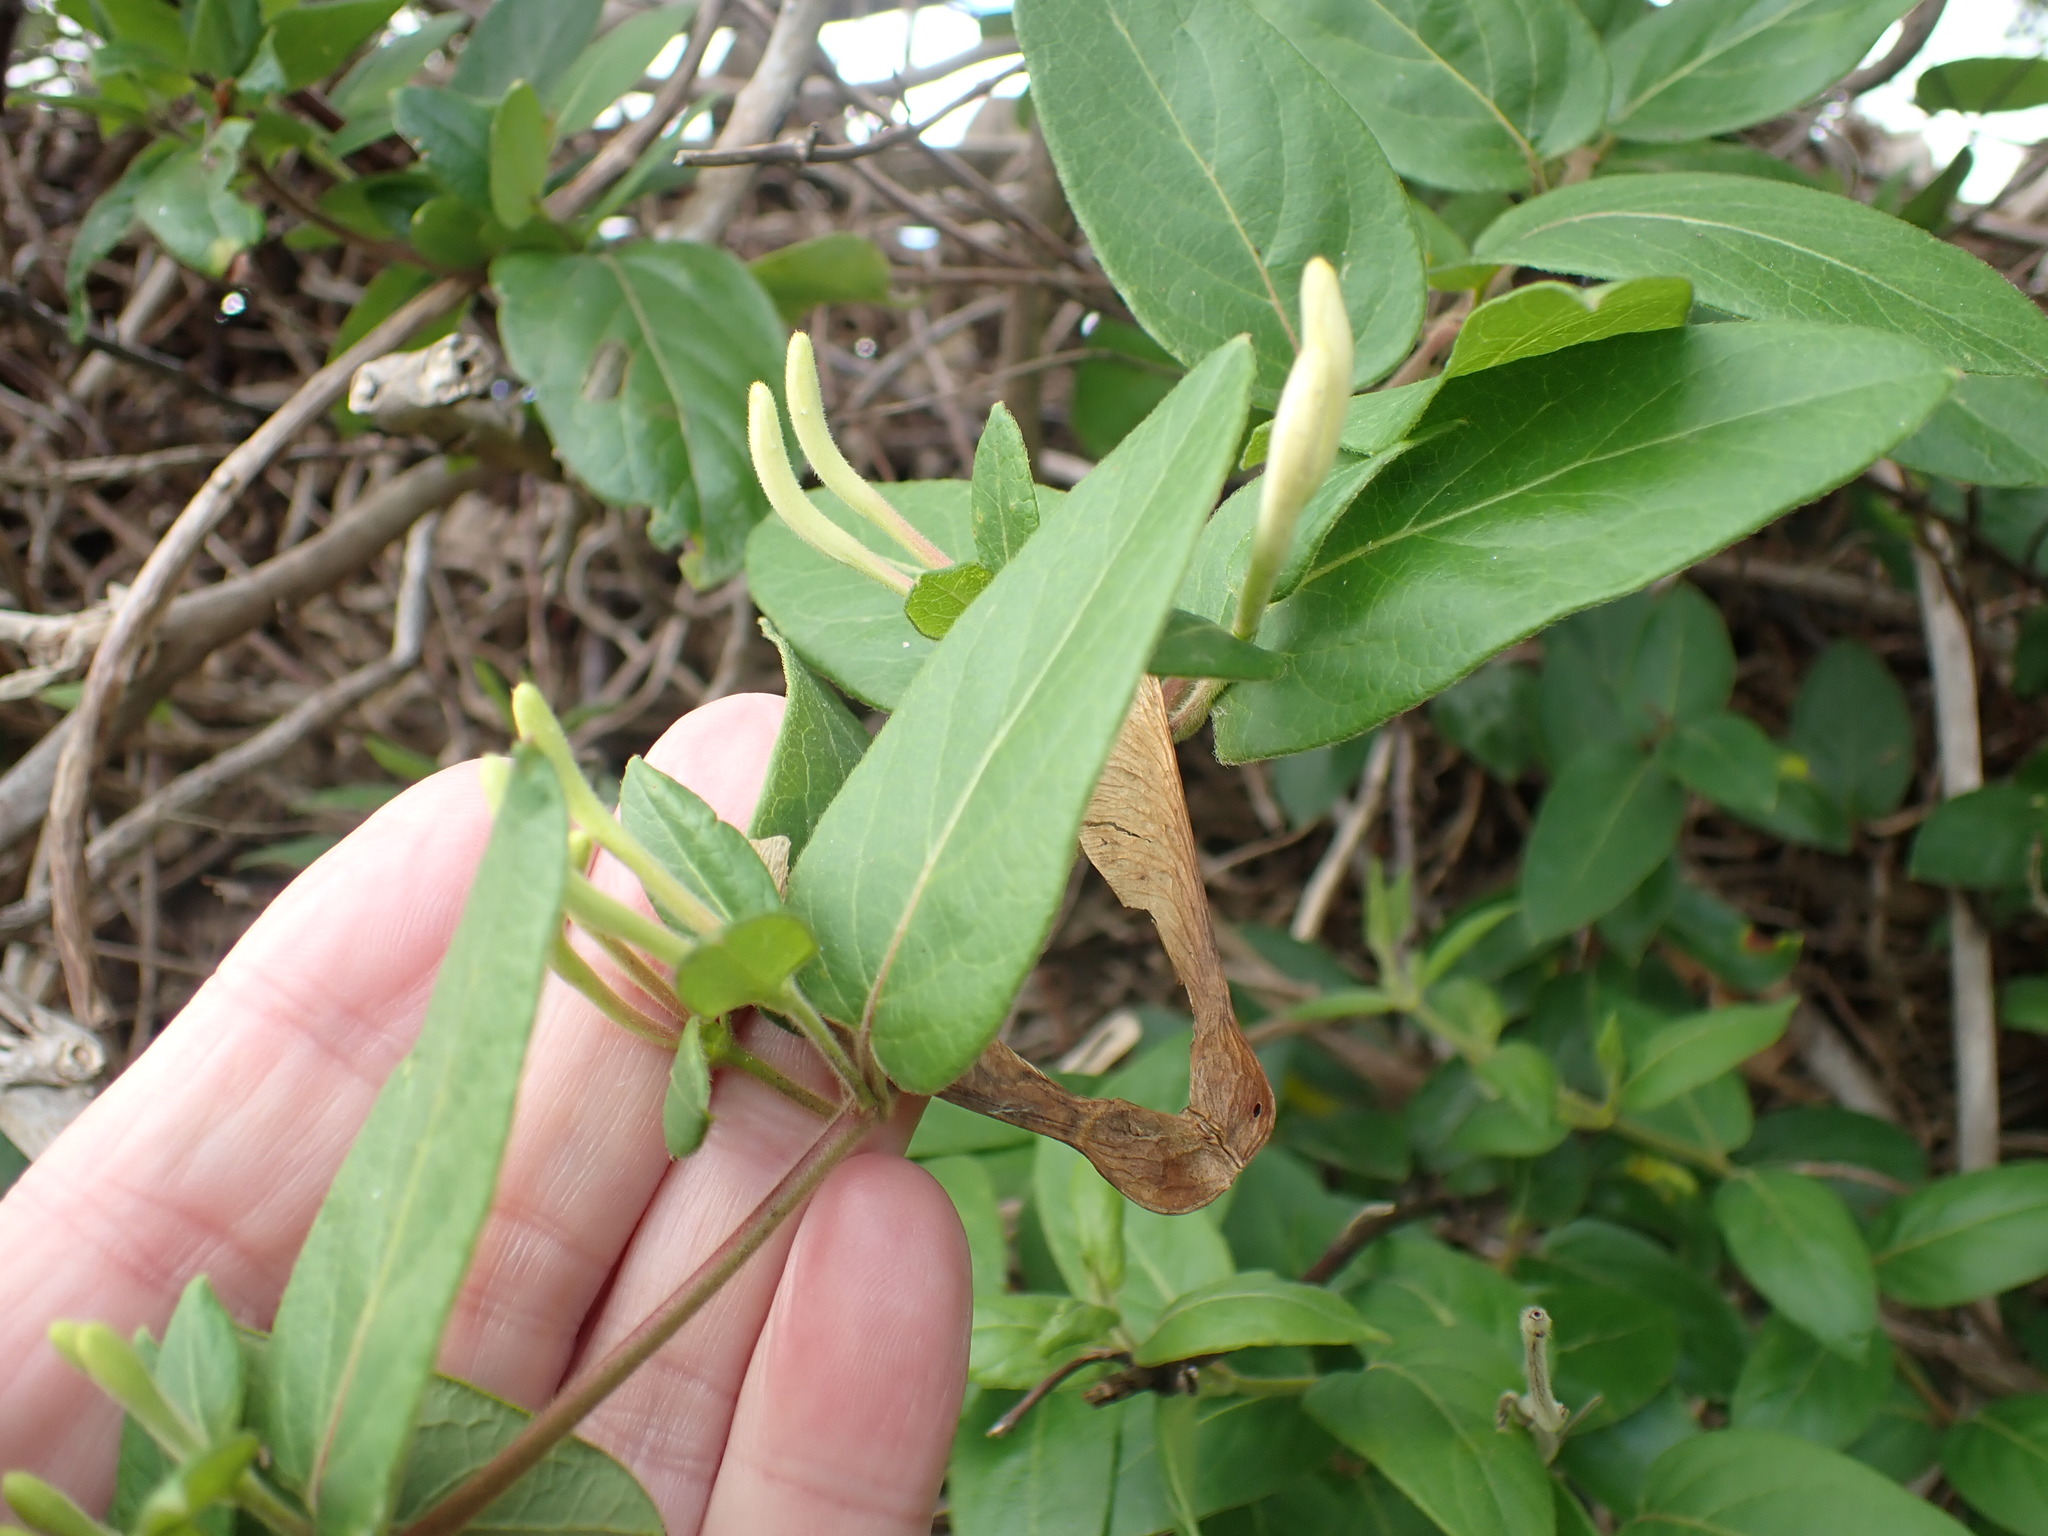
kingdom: Plantae
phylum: Tracheophyta
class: Magnoliopsida
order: Dipsacales
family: Caprifoliaceae
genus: Lonicera
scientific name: Lonicera japonica
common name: Japanese honeysuckle
